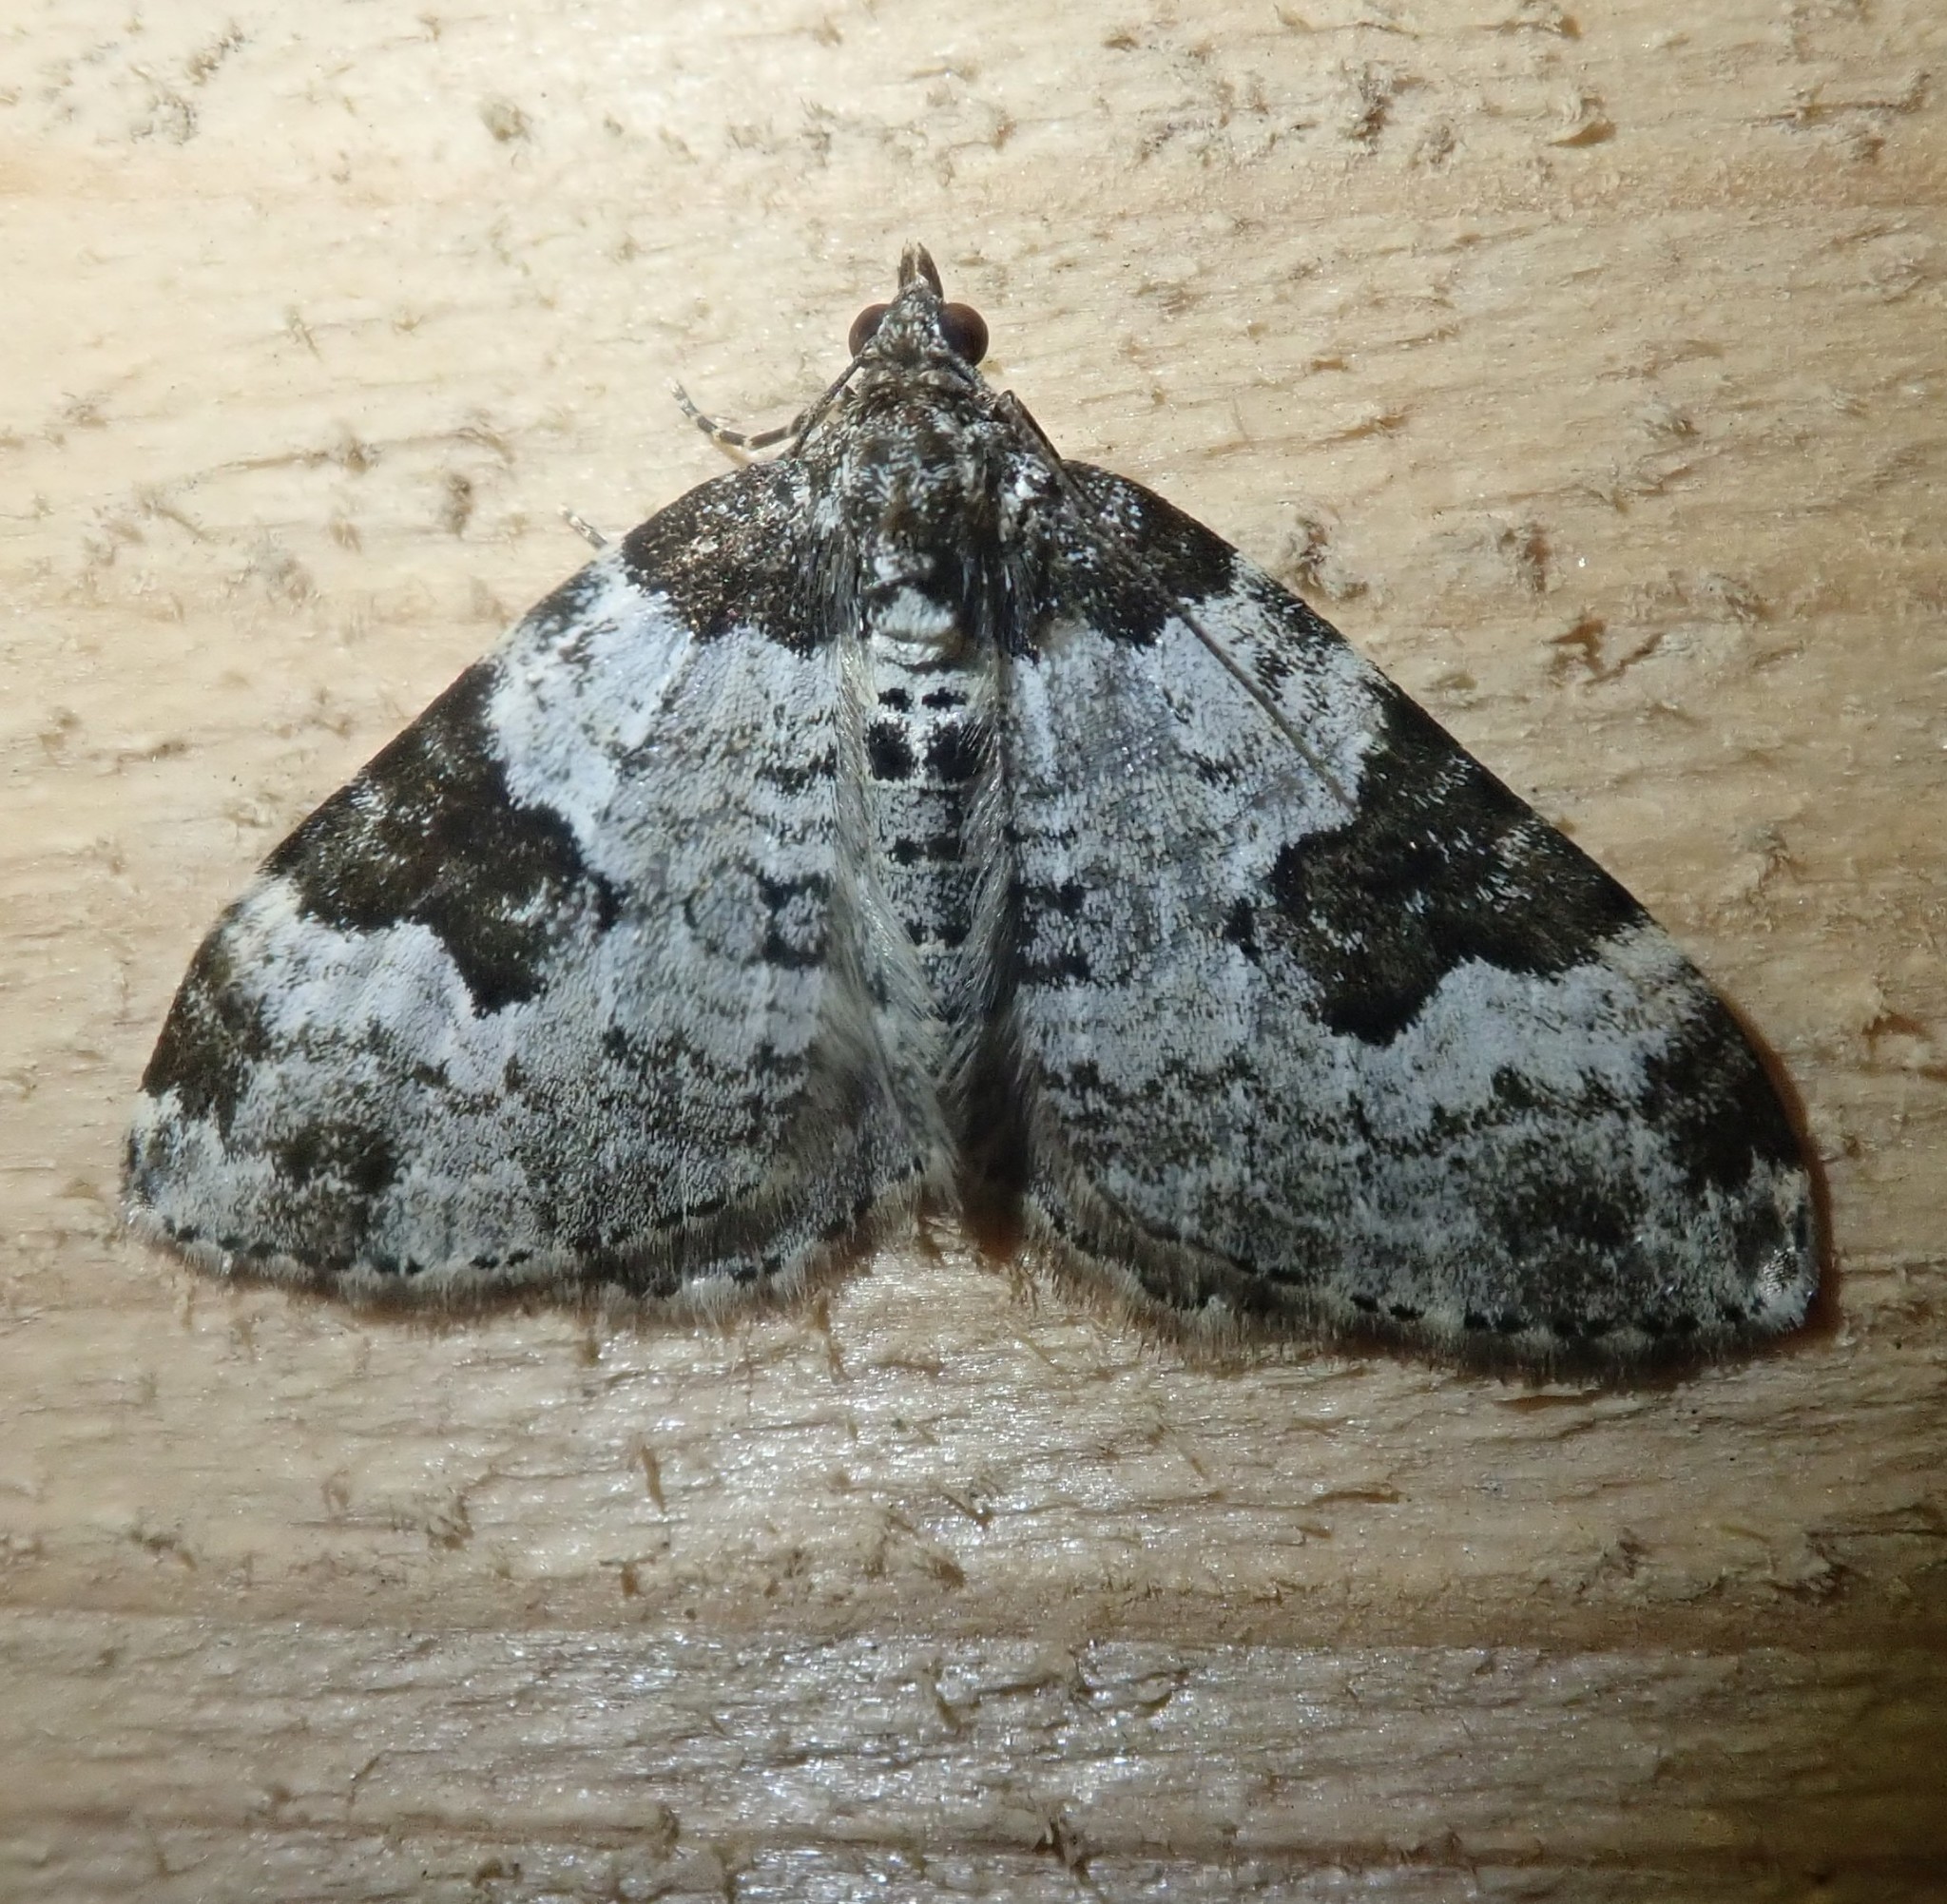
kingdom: Animalia
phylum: Arthropoda
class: Insecta
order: Lepidoptera
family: Geometridae
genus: Xanthorhoe
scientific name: Xanthorhoe fluctuata
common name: Garden carpet
